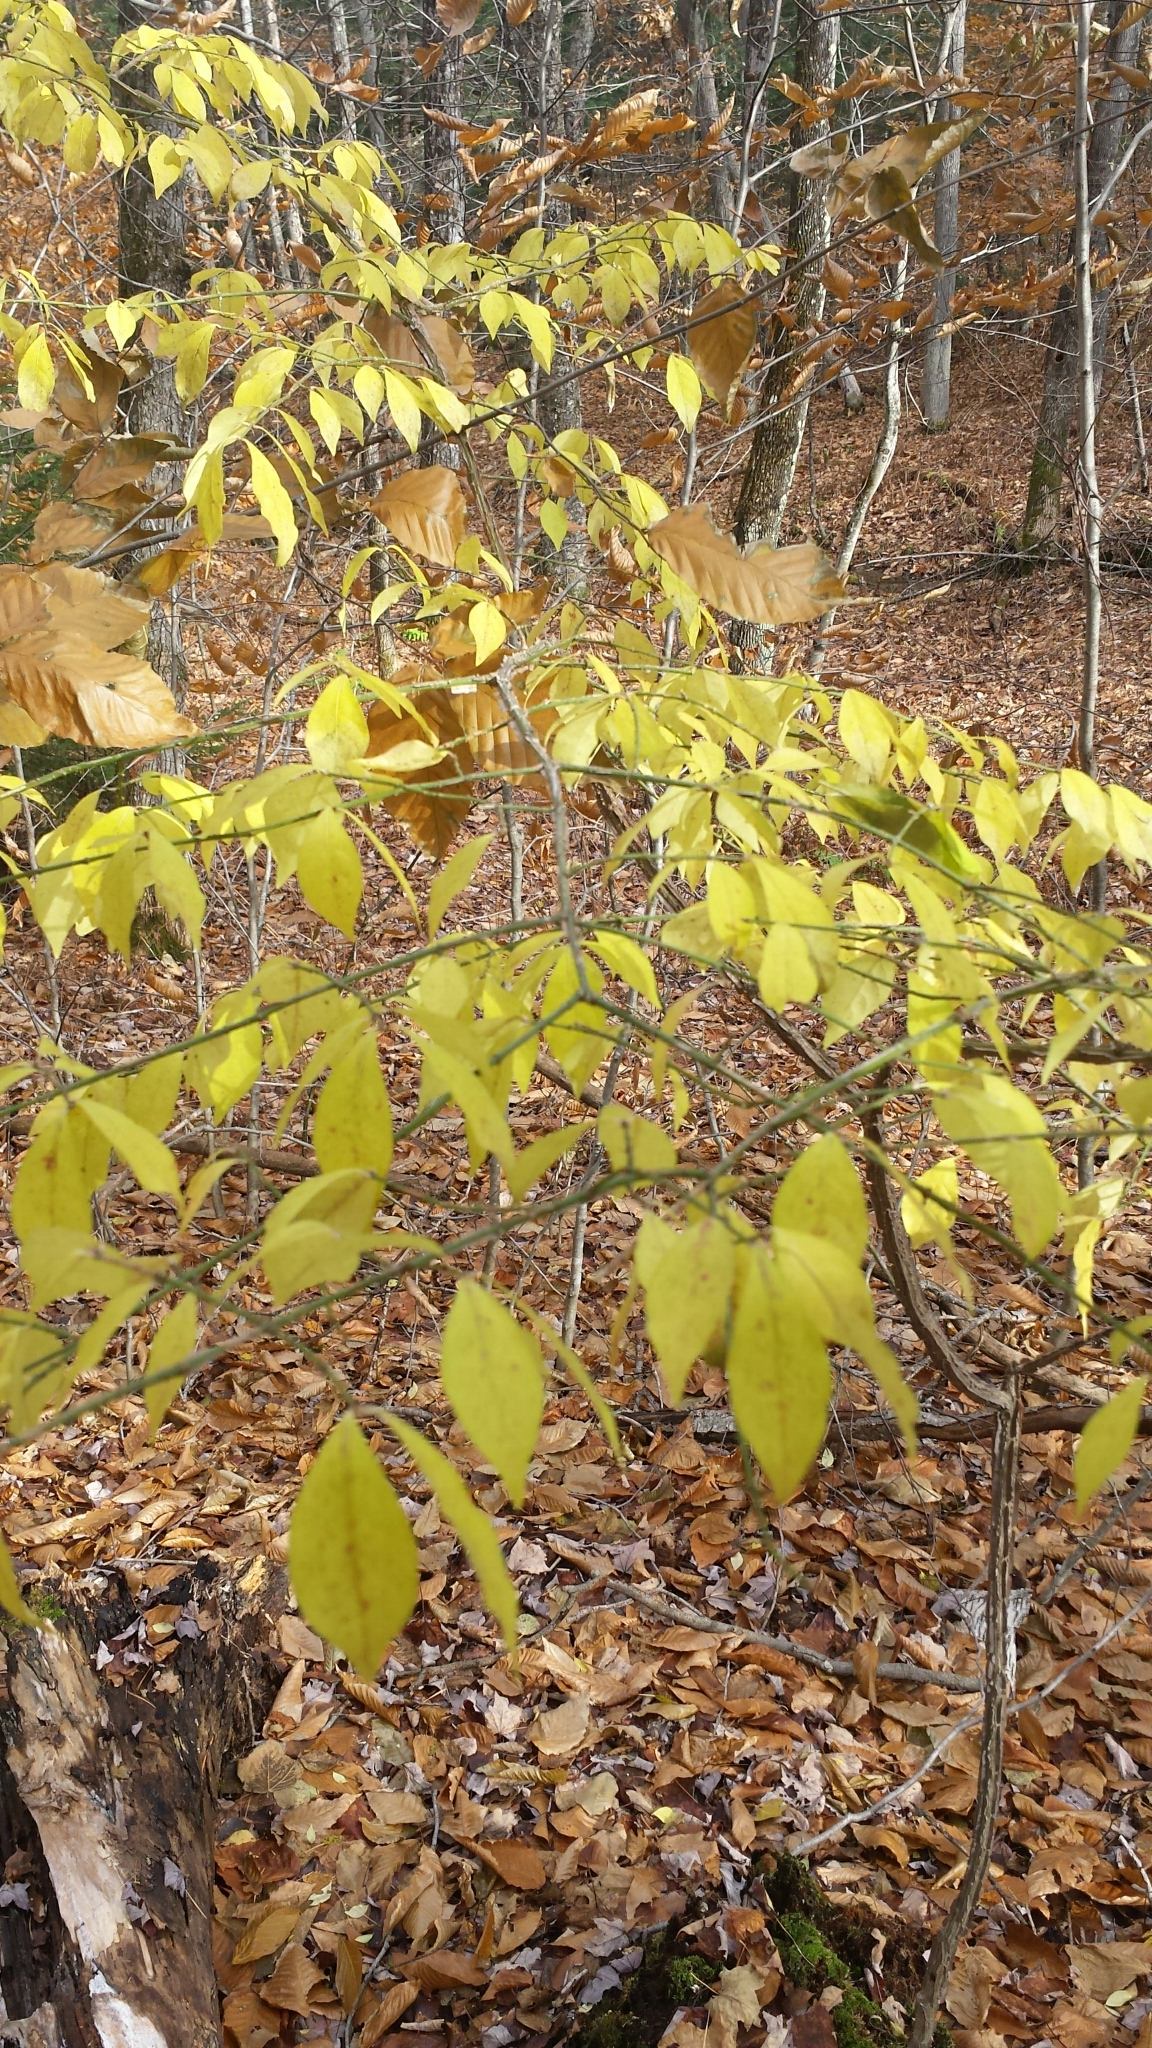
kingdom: Plantae
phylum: Tracheophyta
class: Magnoliopsida
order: Celastrales
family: Celastraceae
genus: Euonymus
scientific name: Euonymus alatus
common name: Winged euonymus
